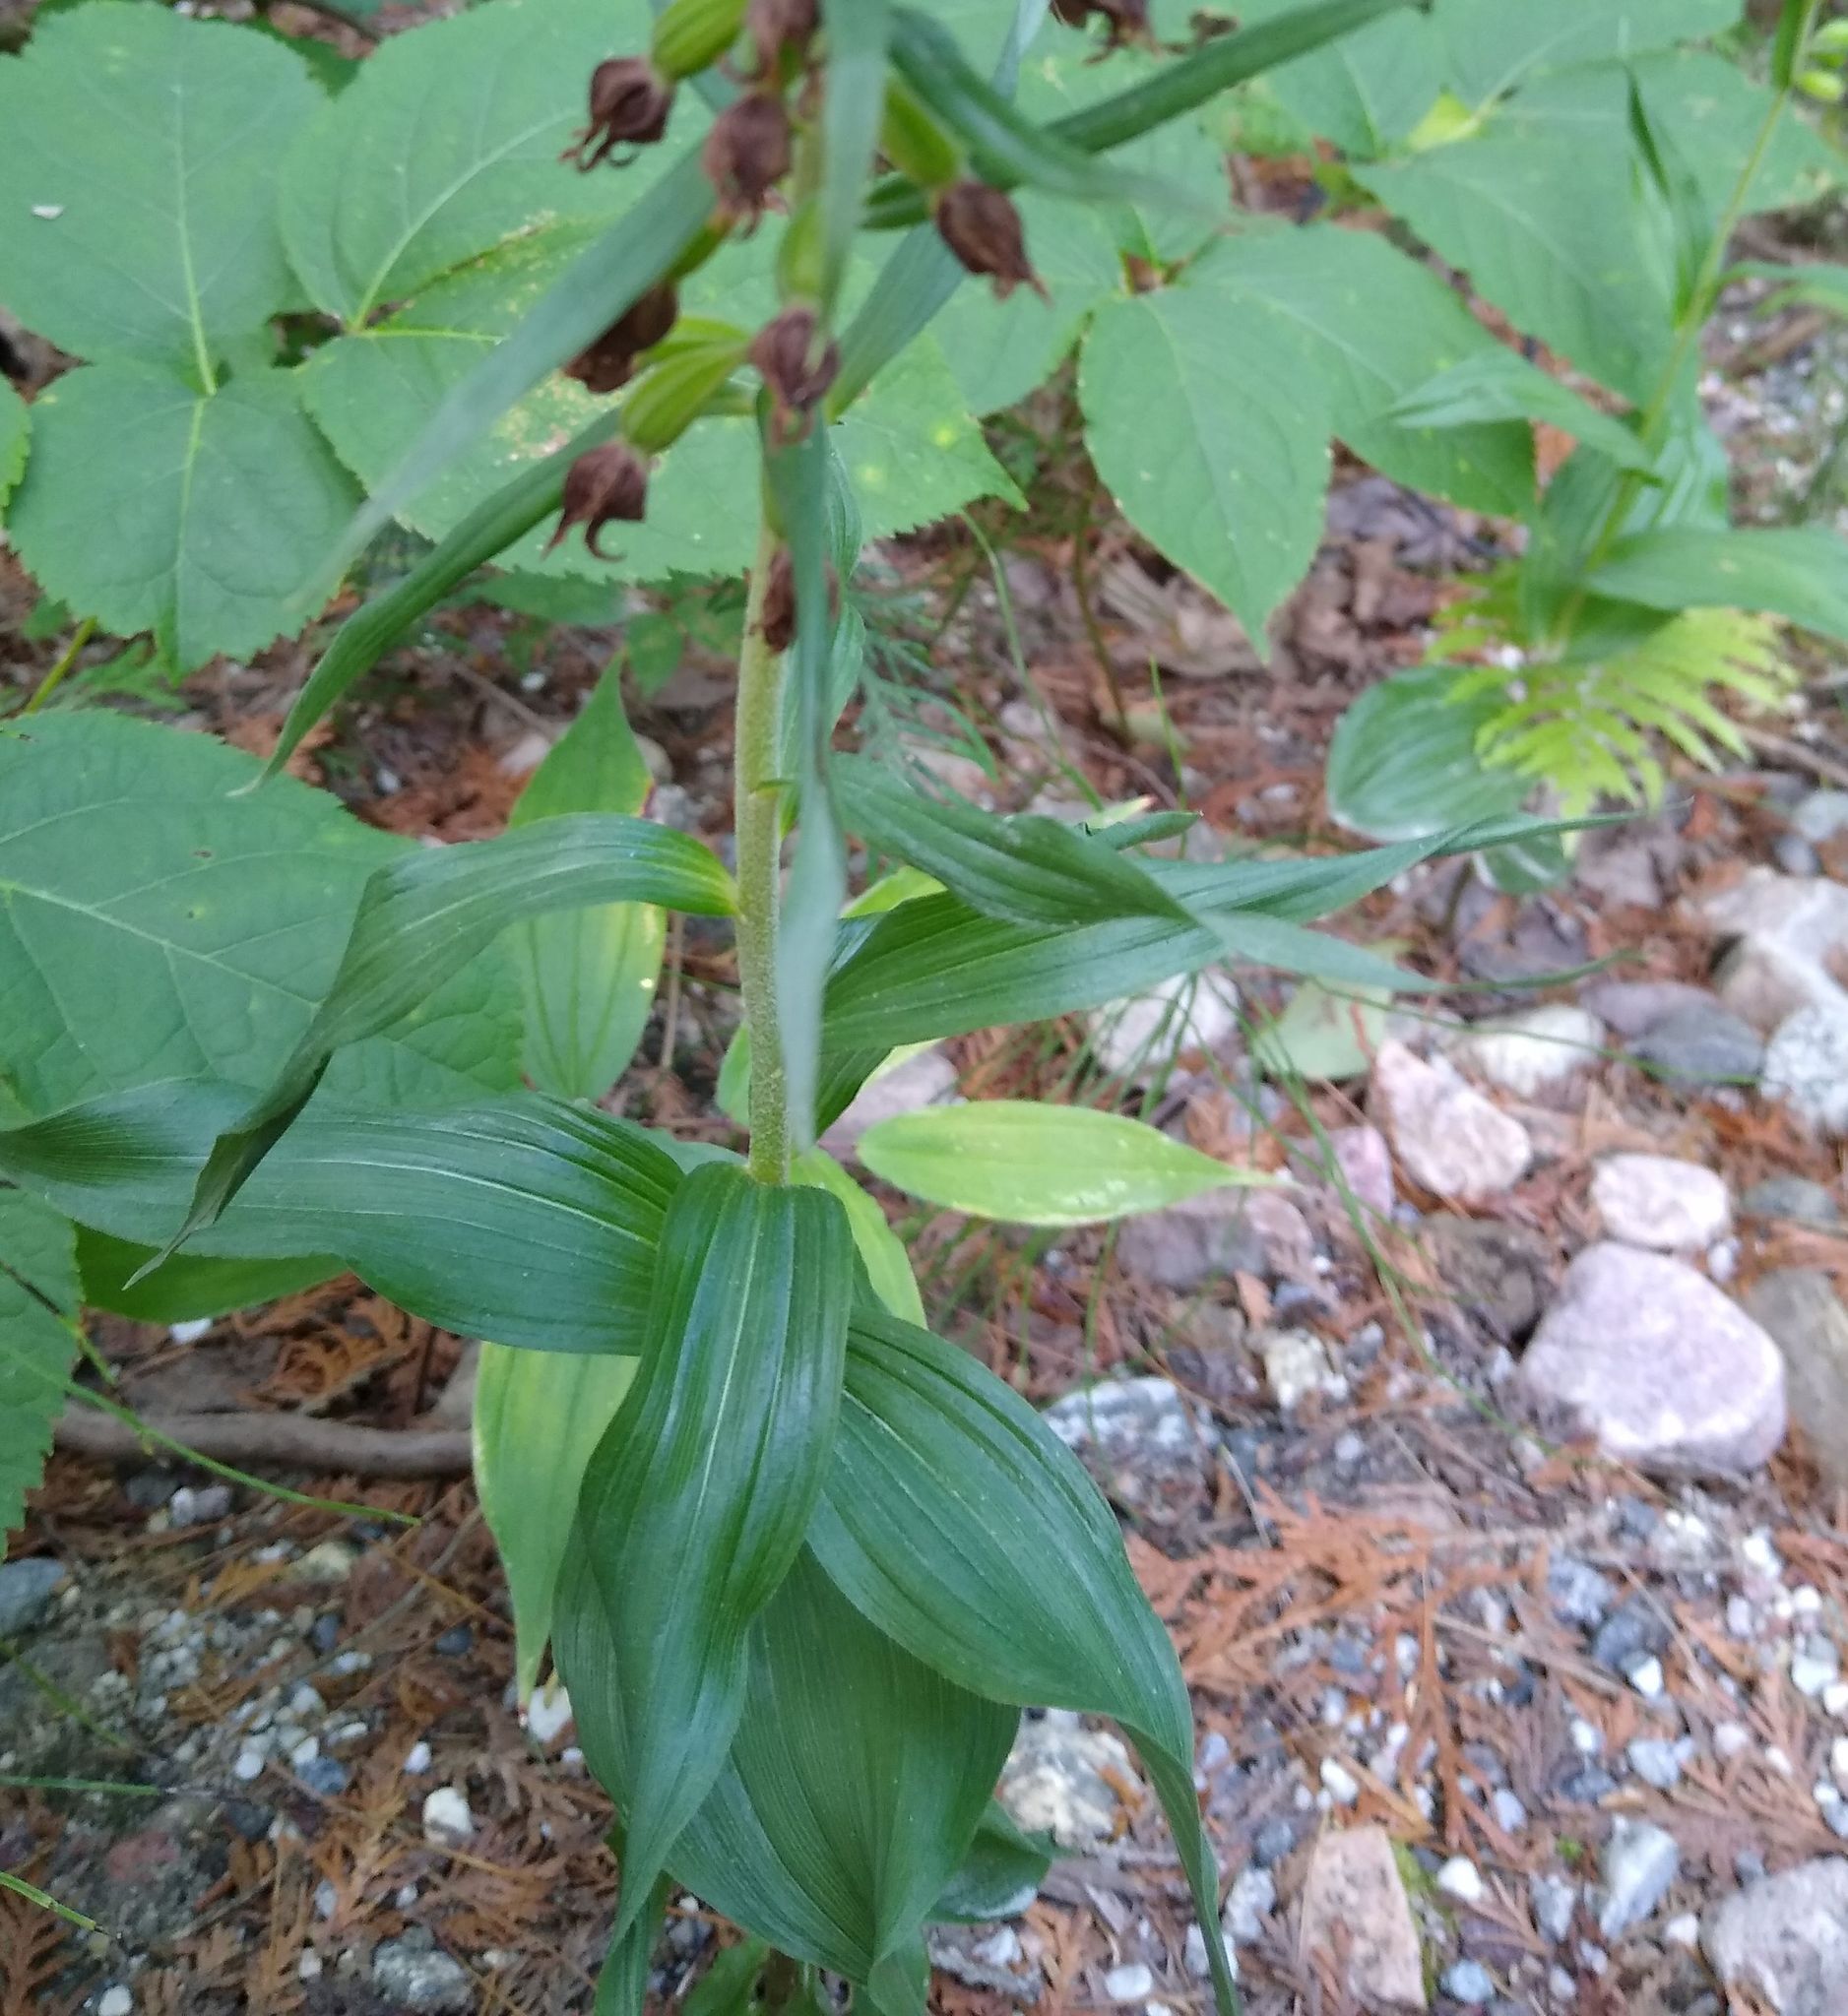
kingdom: Plantae
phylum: Tracheophyta
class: Liliopsida
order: Asparagales
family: Orchidaceae
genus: Epipactis
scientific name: Epipactis helleborine
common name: Broad-leaved helleborine
